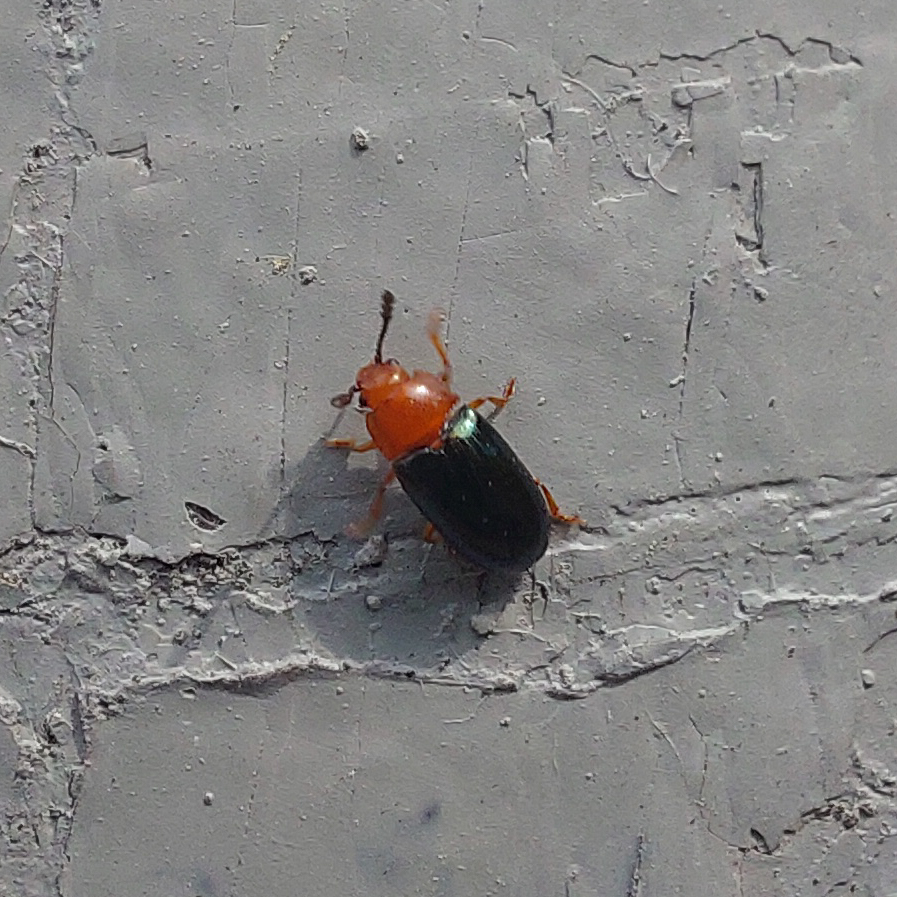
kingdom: Animalia
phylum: Arthropoda
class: Insecta
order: Coleoptera
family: Erotylidae
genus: Triplax
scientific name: Triplax aenea
